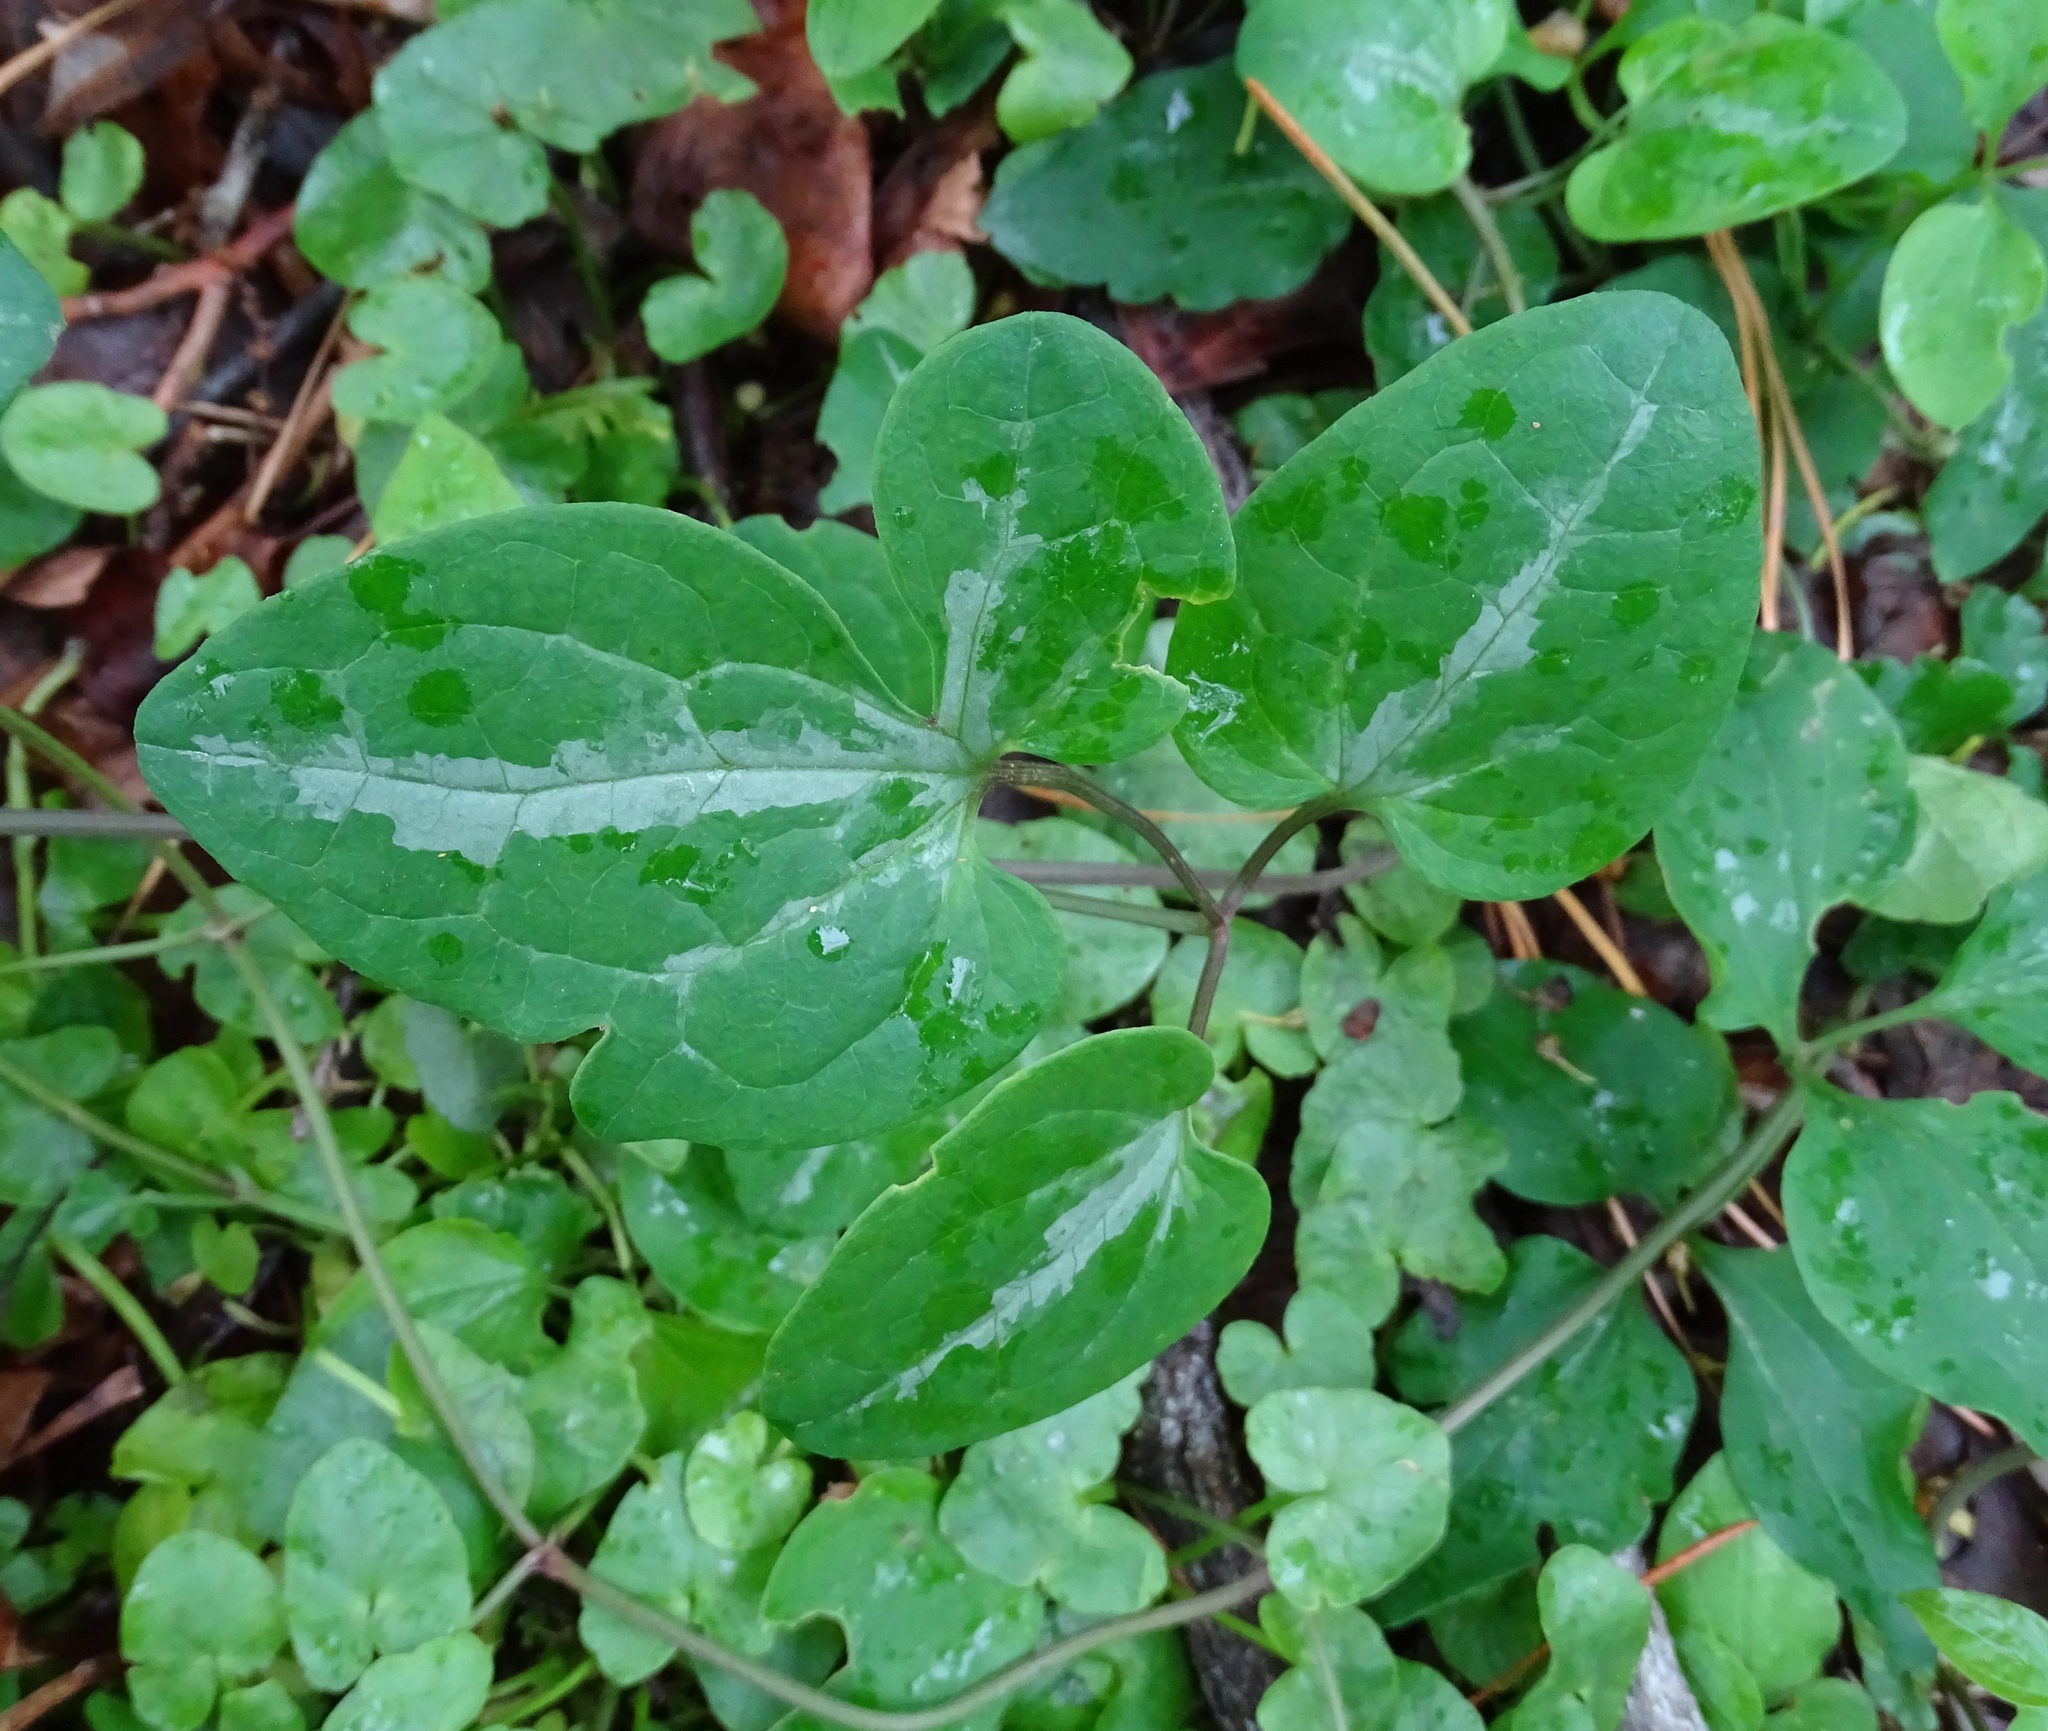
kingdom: Plantae
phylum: Tracheophyta
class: Magnoliopsida
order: Ranunculales
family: Ranunculaceae
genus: Clematis
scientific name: Clematis terniflora
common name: Sweet autumn clematis
